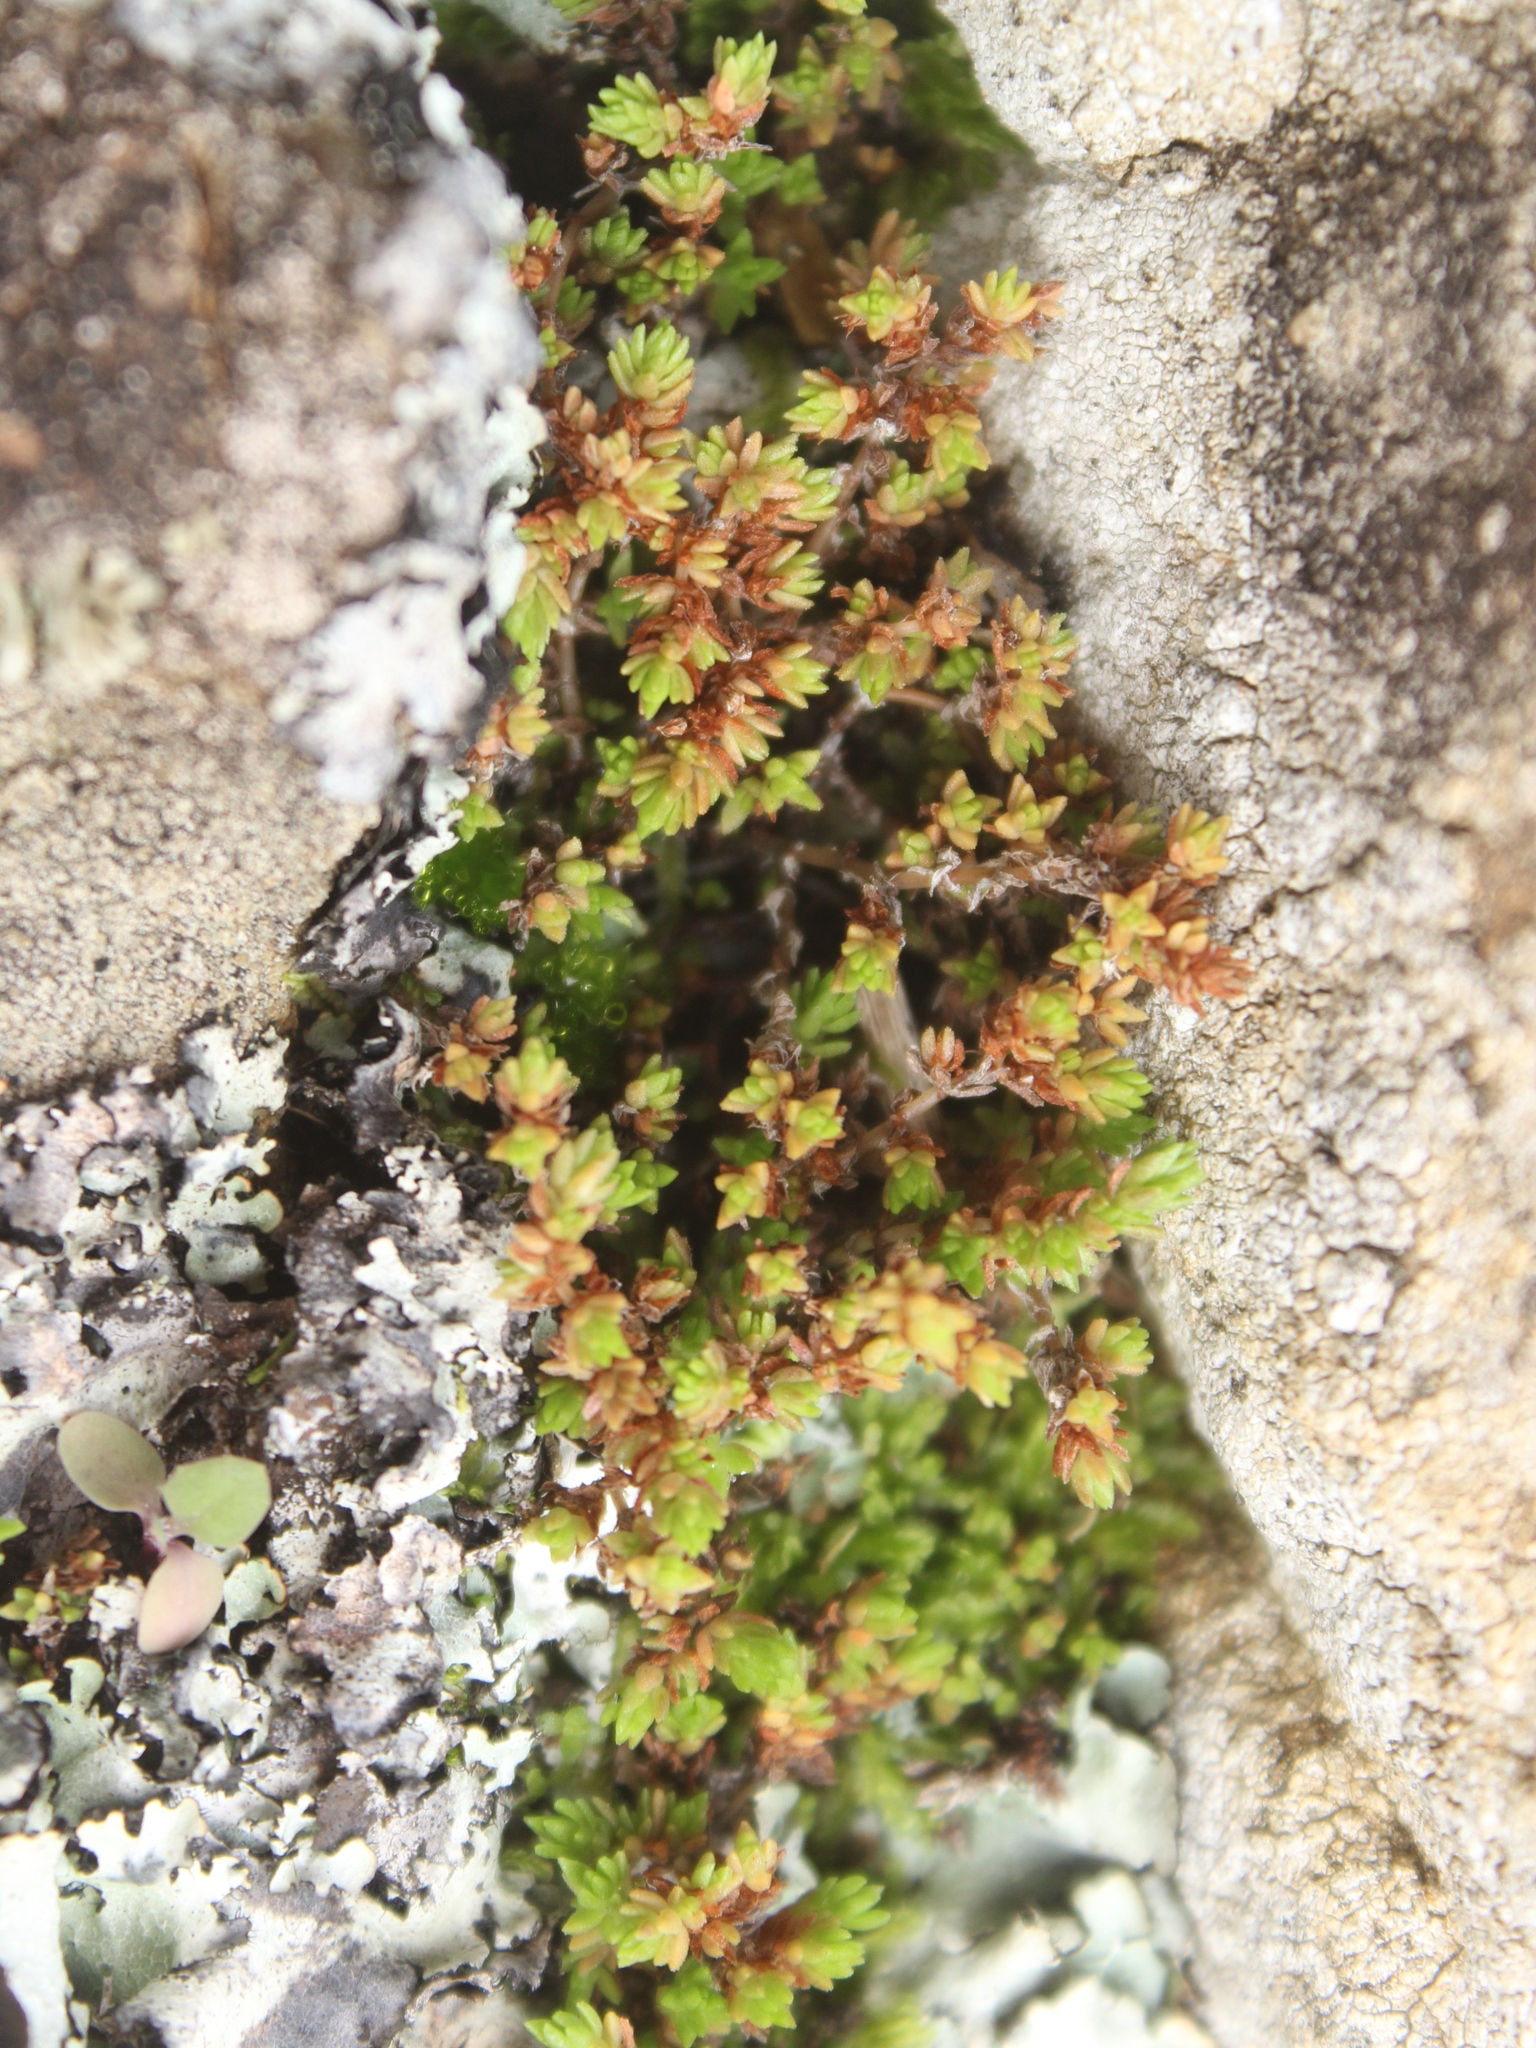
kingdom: Plantae
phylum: Tracheophyta
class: Magnoliopsida
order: Saxifragales
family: Crassulaceae
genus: Crassula
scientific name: Crassula moschata
